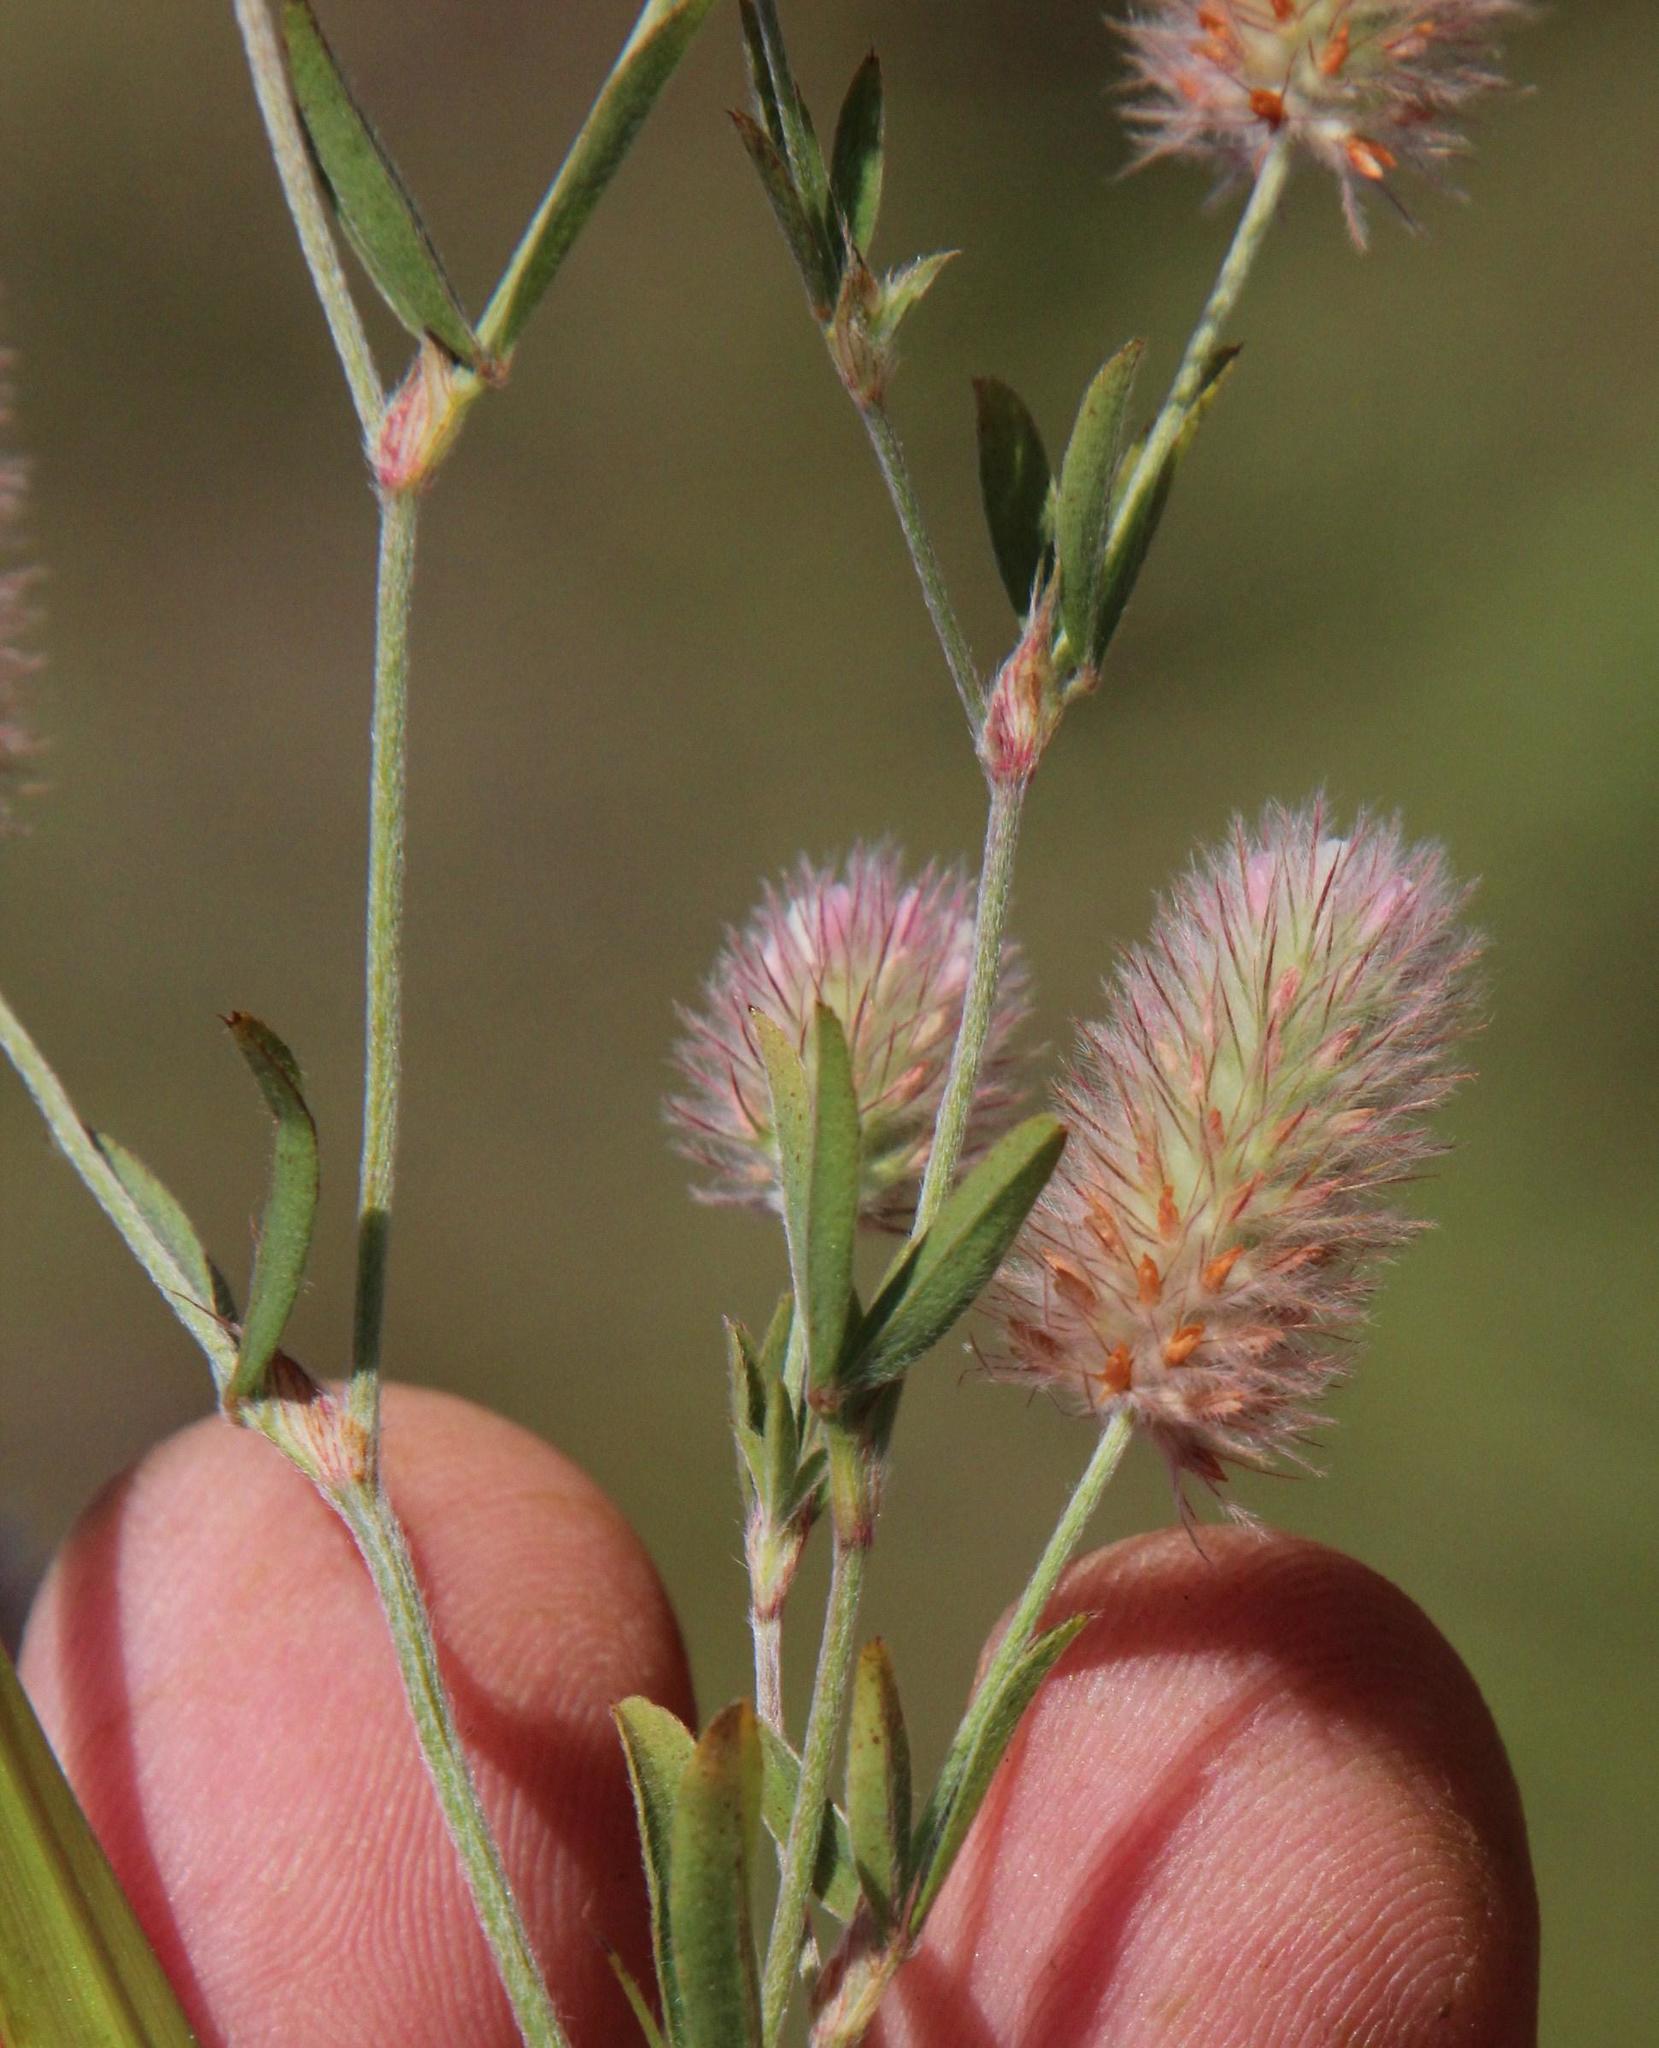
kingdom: Plantae
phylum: Tracheophyta
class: Magnoliopsida
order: Fabales
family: Fabaceae
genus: Trifolium
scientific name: Trifolium arvense
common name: Hare's-foot clover
